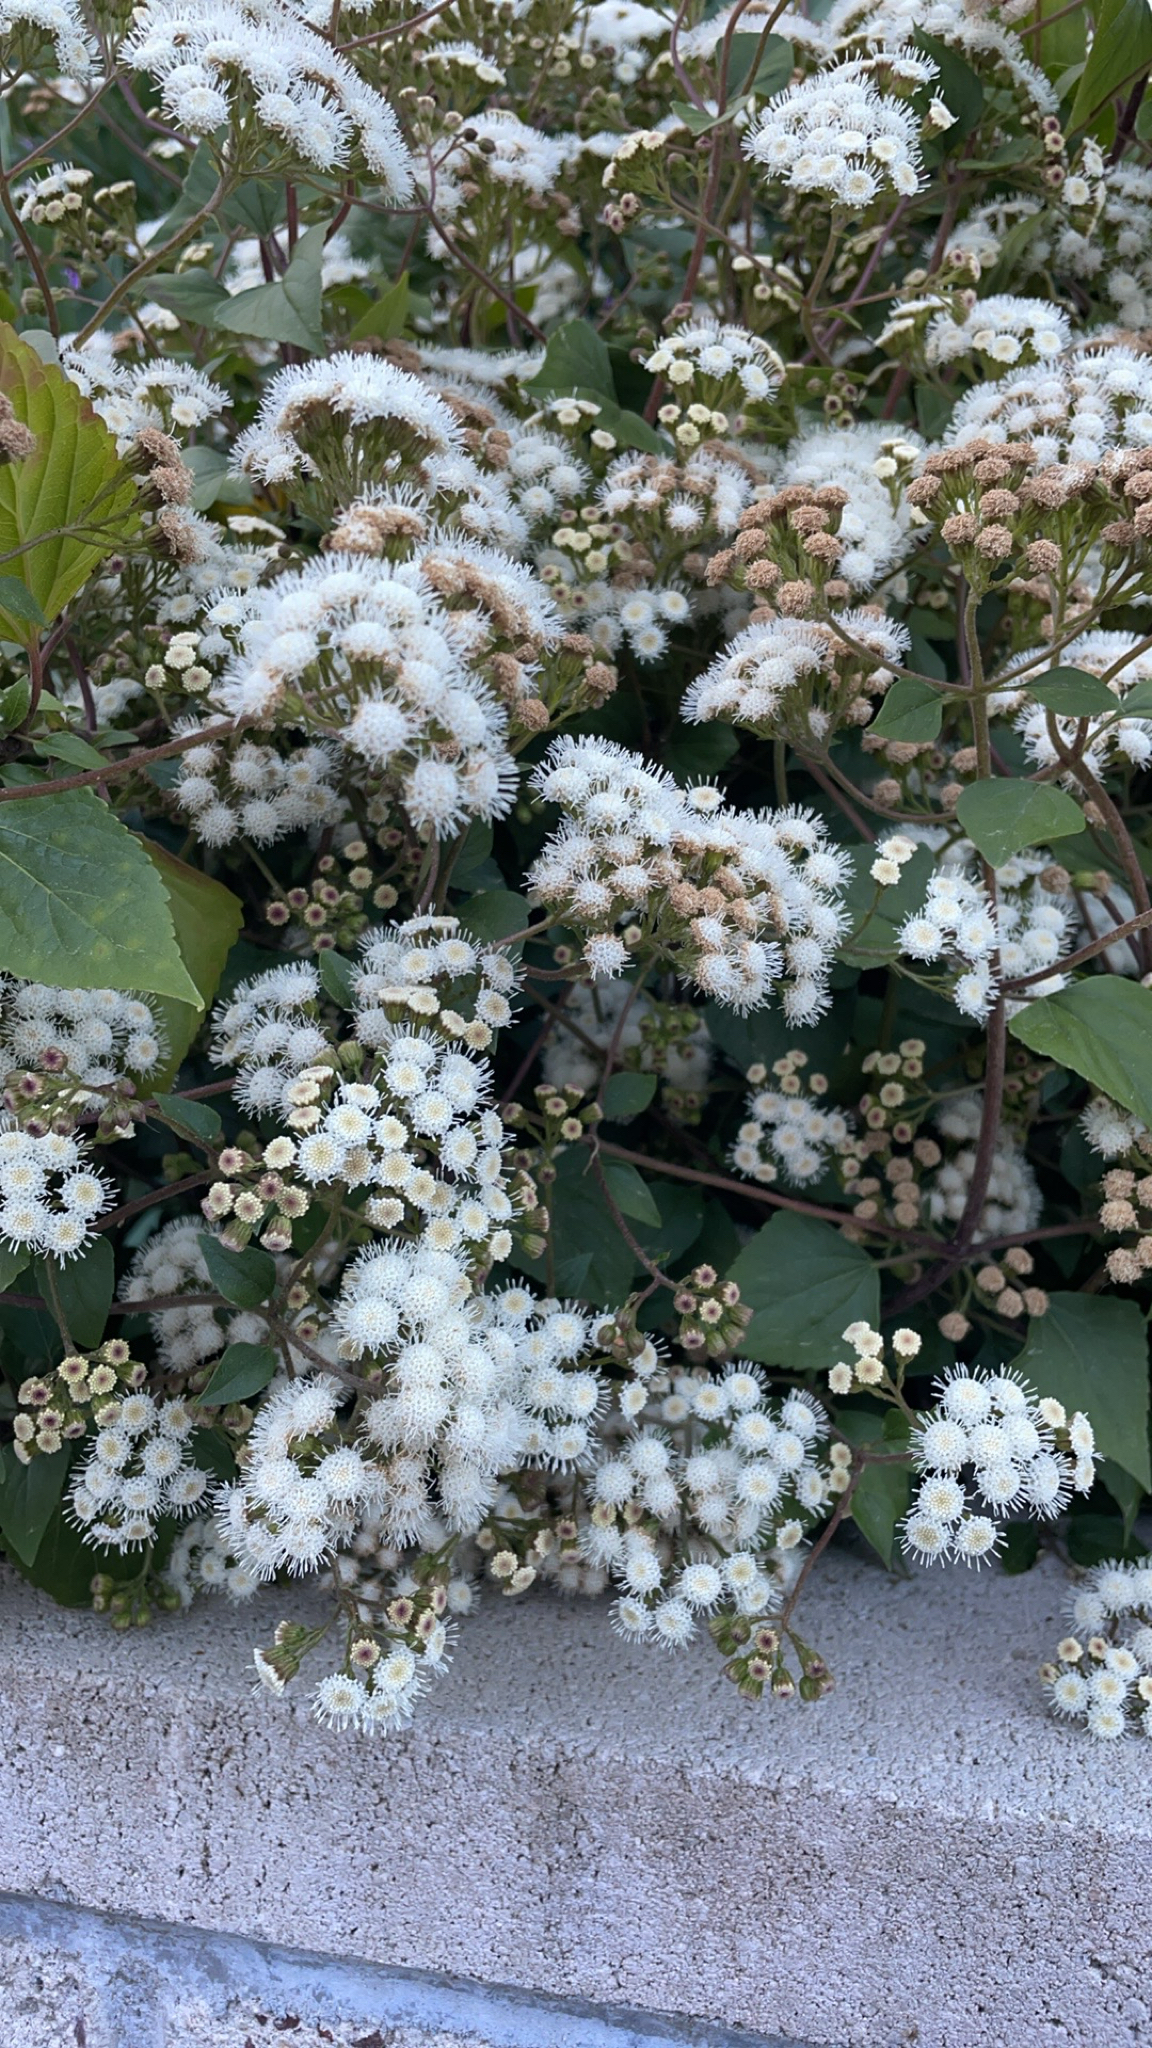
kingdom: Plantae
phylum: Tracheophyta
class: Magnoliopsida
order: Asterales
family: Asteraceae
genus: Ageratina
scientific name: Ageratina adenophora
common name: Sticky snakeroot
